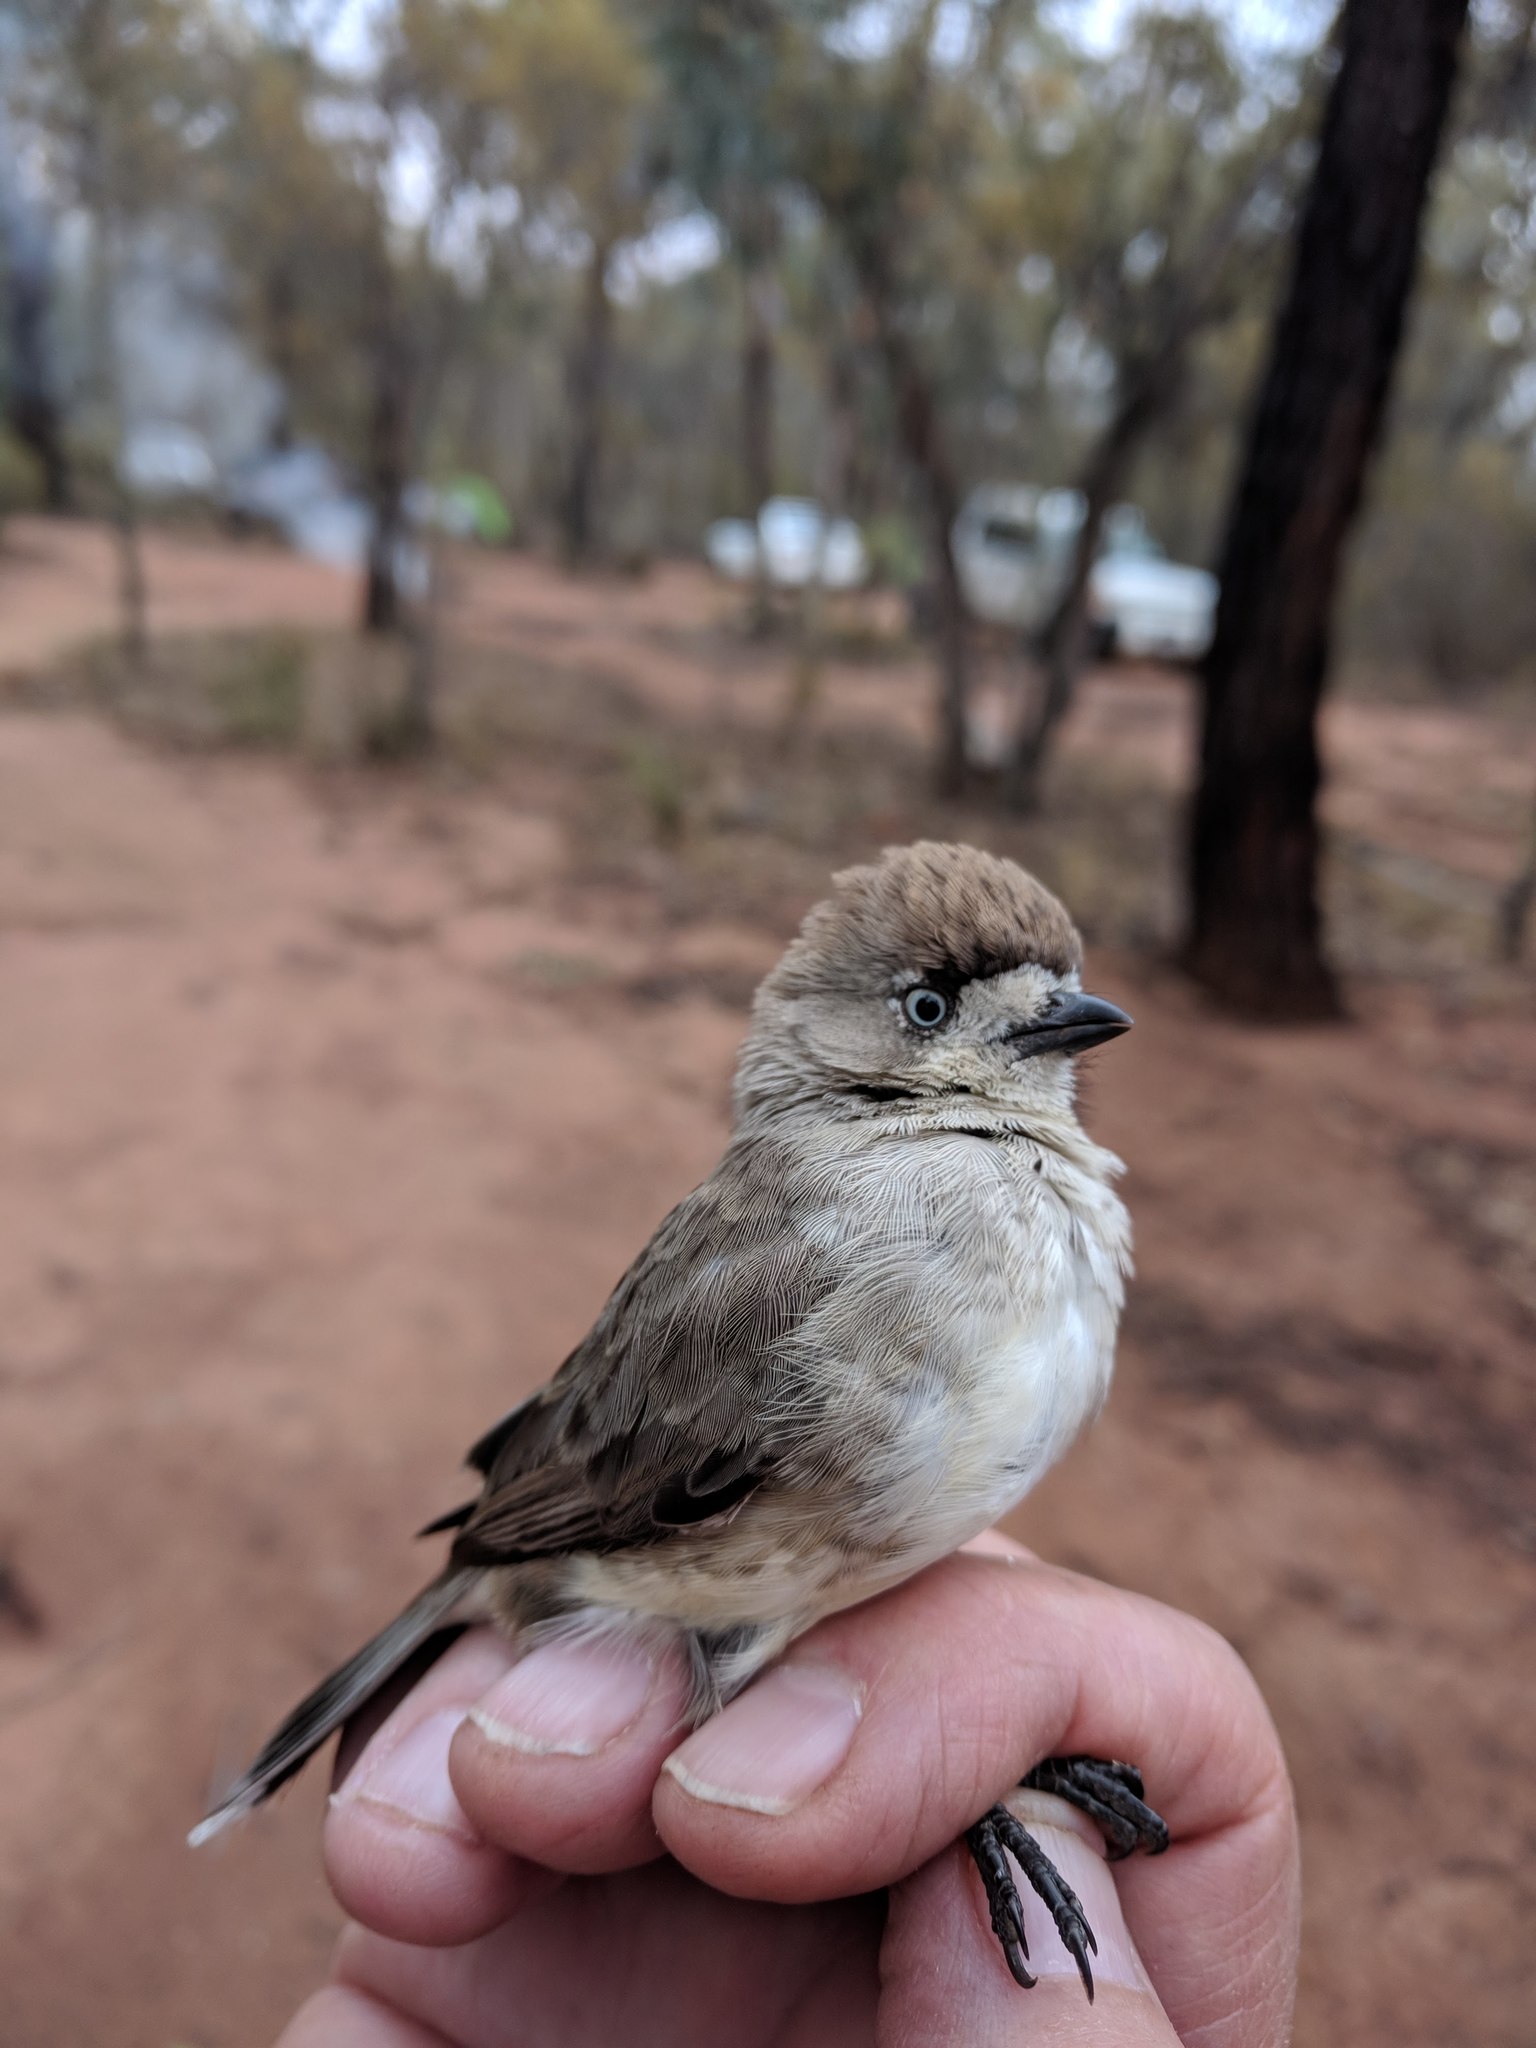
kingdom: Animalia
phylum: Chordata
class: Aves
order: Passeriformes
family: Acanthizidae
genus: Aphelocephala
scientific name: Aphelocephala leucopsis
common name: Southern whiteface
